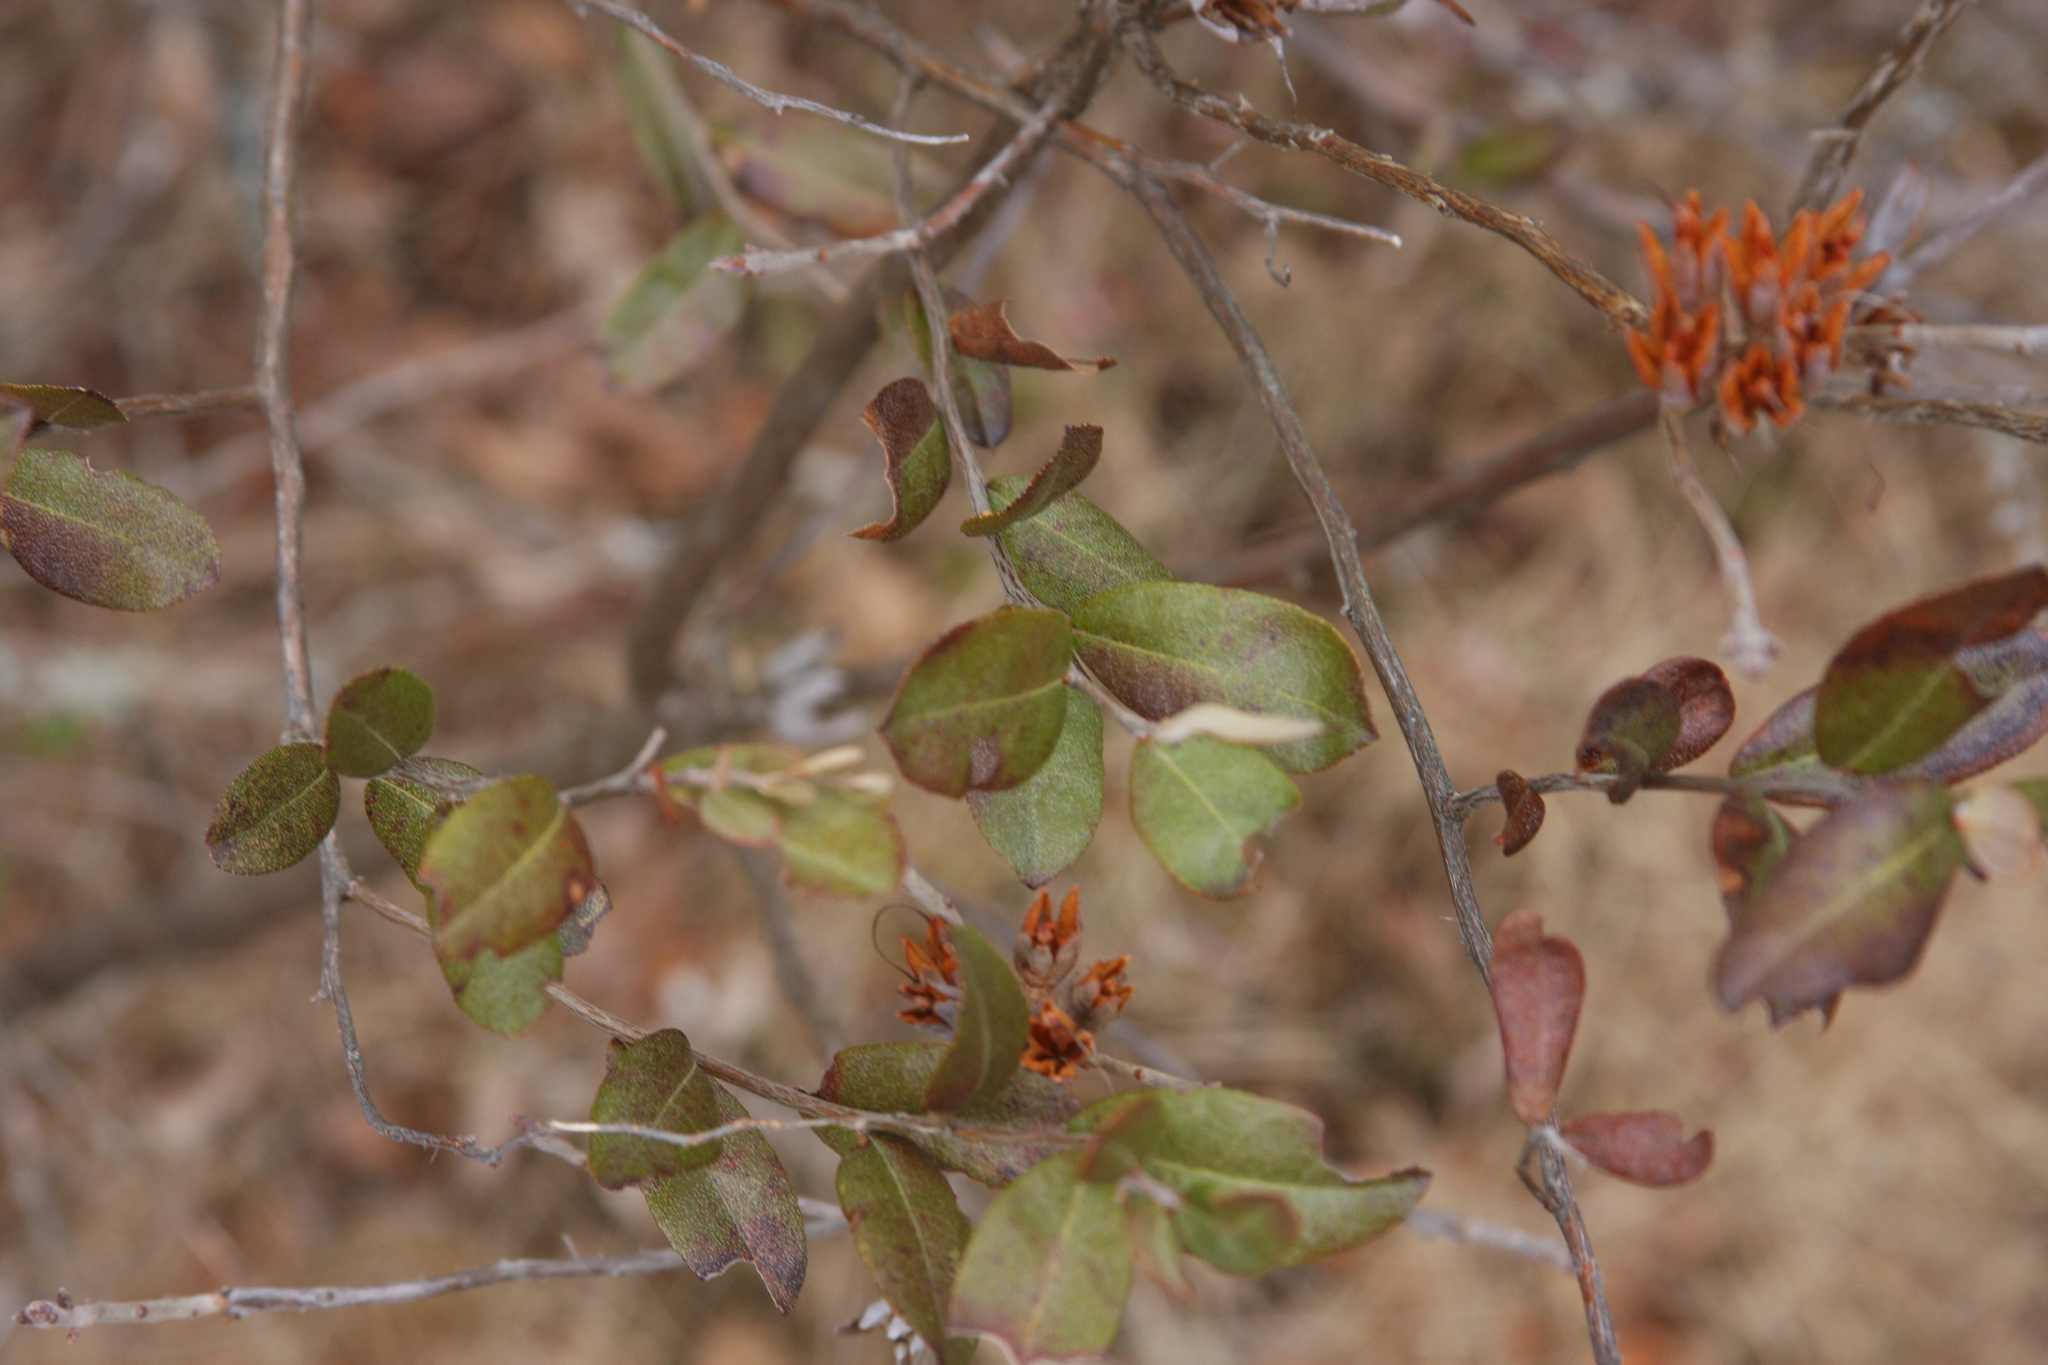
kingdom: Plantae
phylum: Tracheophyta
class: Magnoliopsida
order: Ericales
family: Ericaceae
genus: Rhododendron
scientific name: Rhododendron canadense
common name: Rhodora
